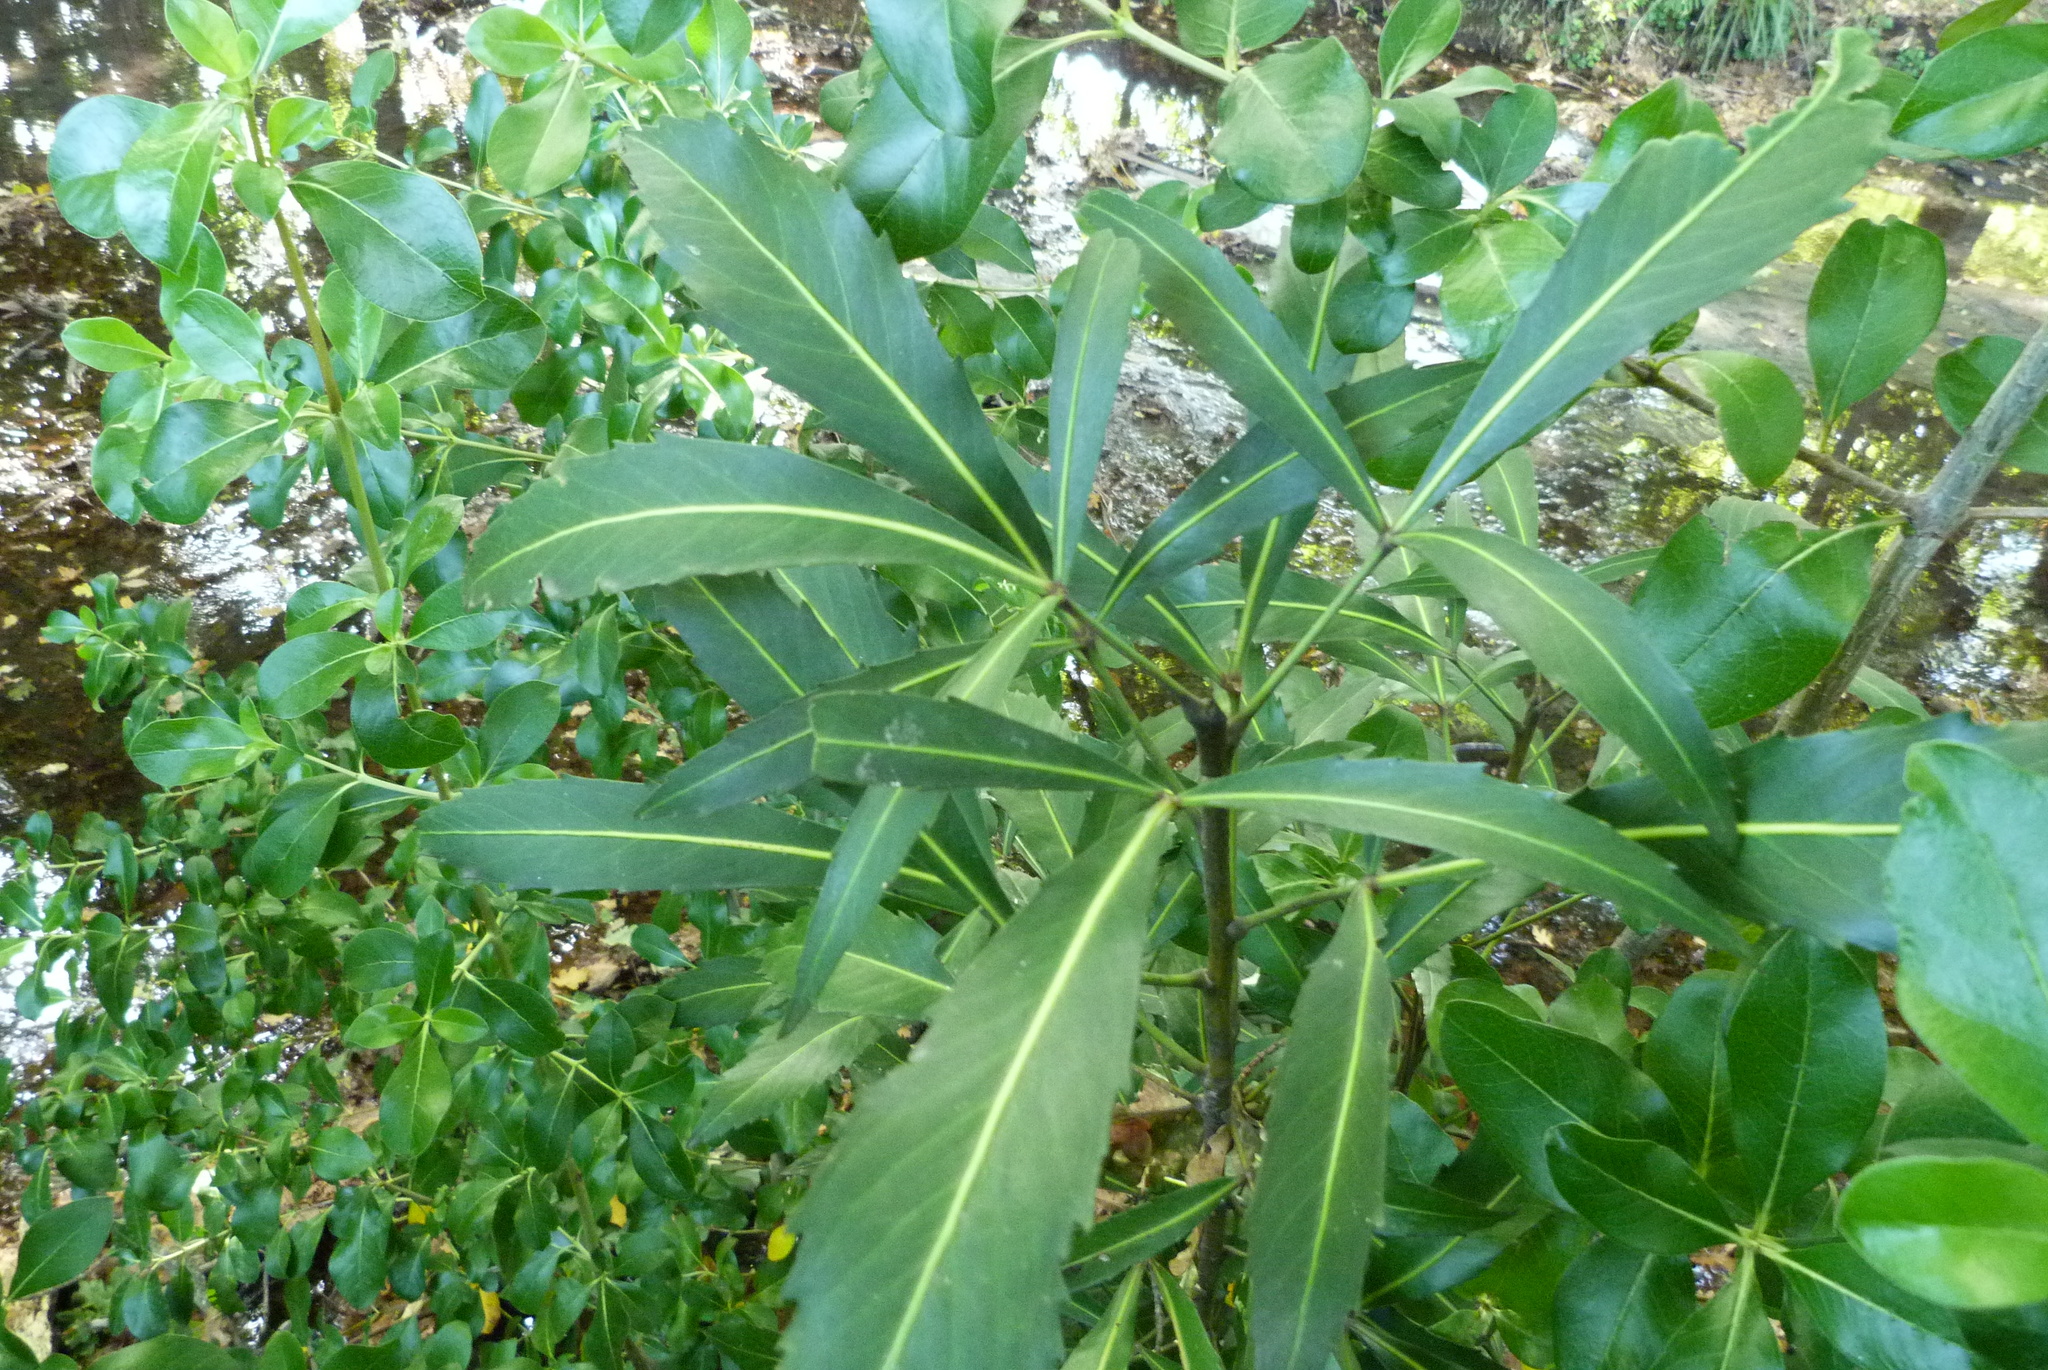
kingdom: Plantae
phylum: Tracheophyta
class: Magnoliopsida
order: Apiales
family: Araliaceae
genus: Pseudopanax
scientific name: Pseudopanax
